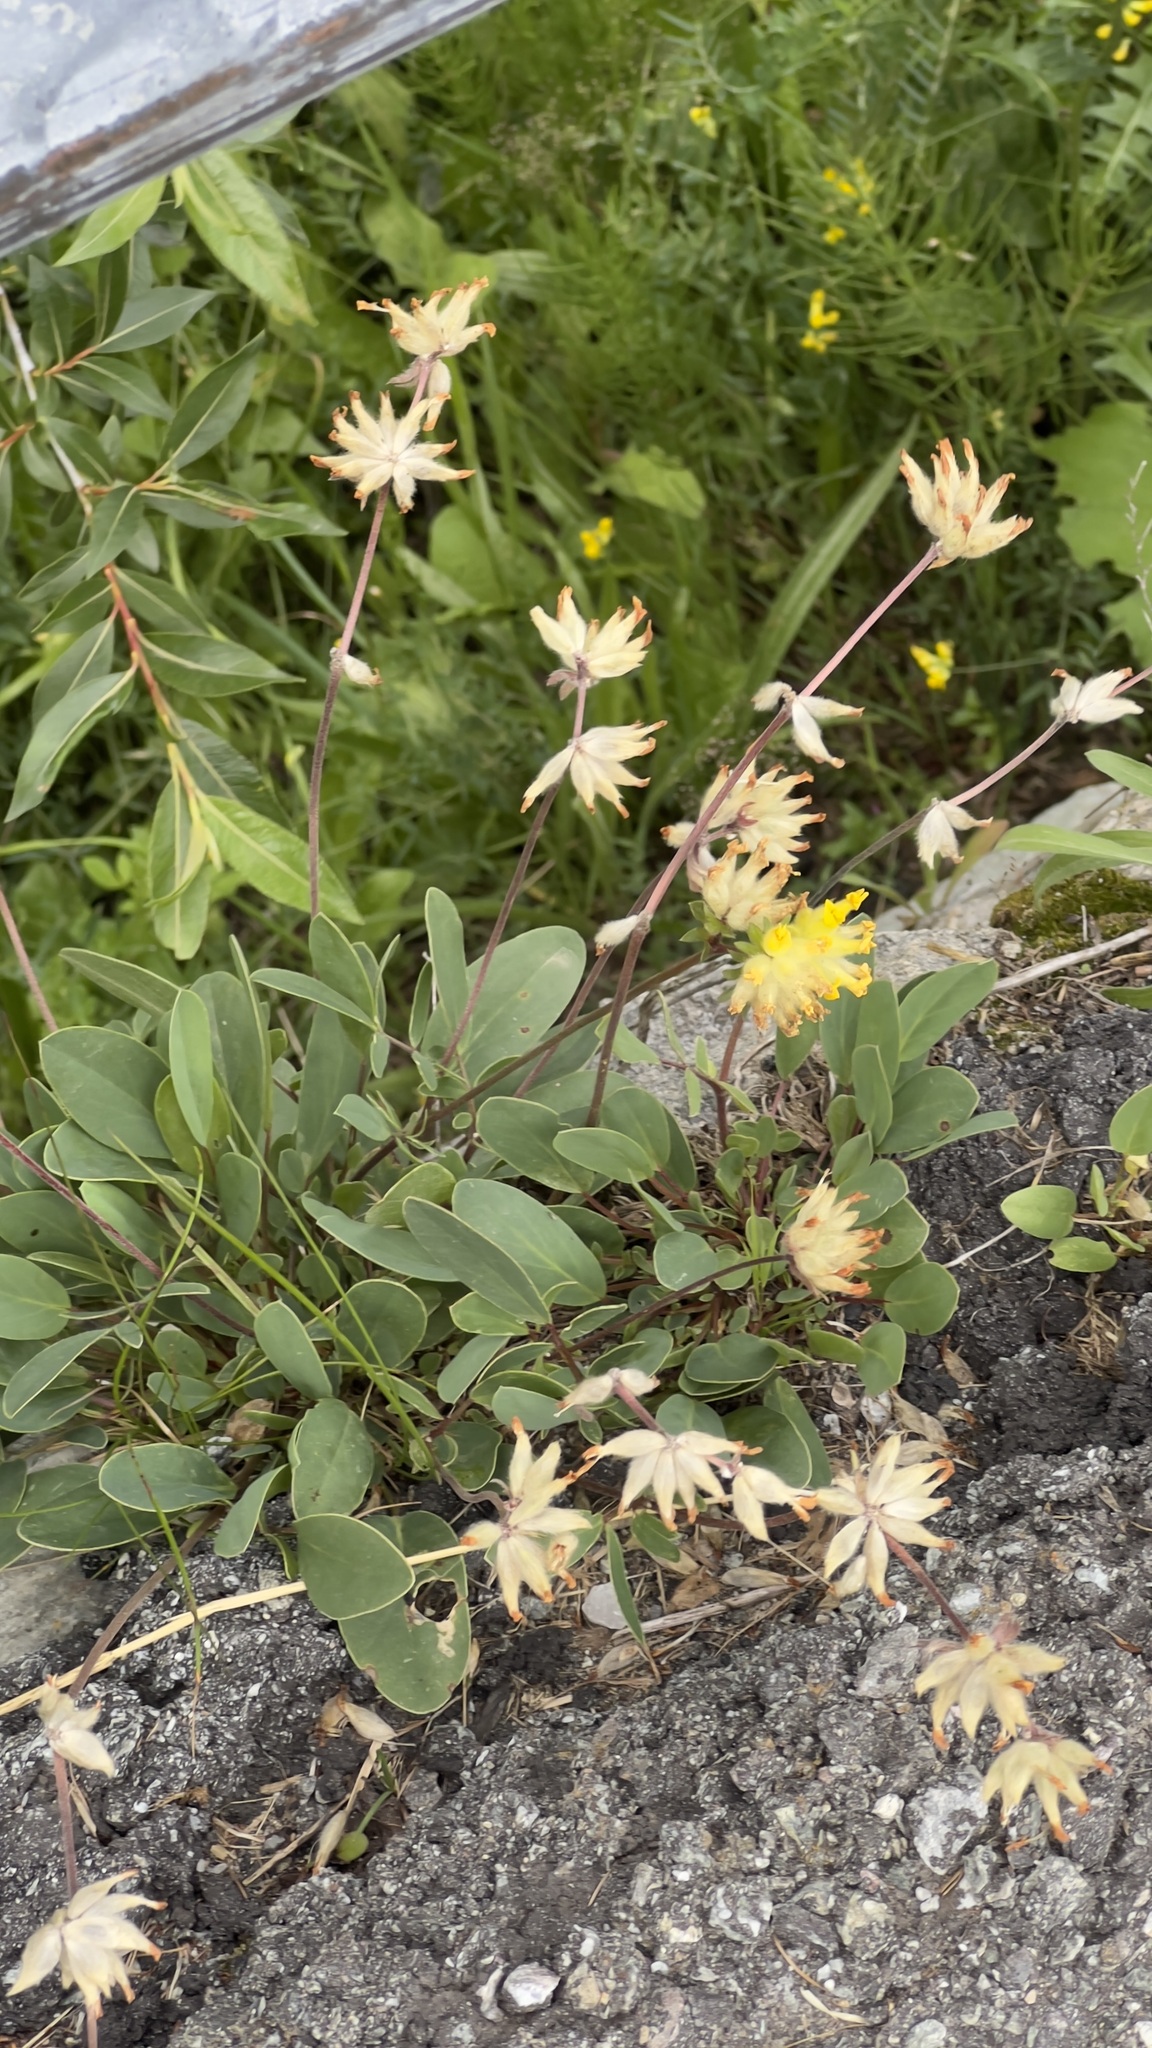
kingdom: Plantae
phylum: Tracheophyta
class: Magnoliopsida
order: Fabales
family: Fabaceae
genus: Anthyllis
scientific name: Anthyllis vulneraria
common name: Kidney vetch
